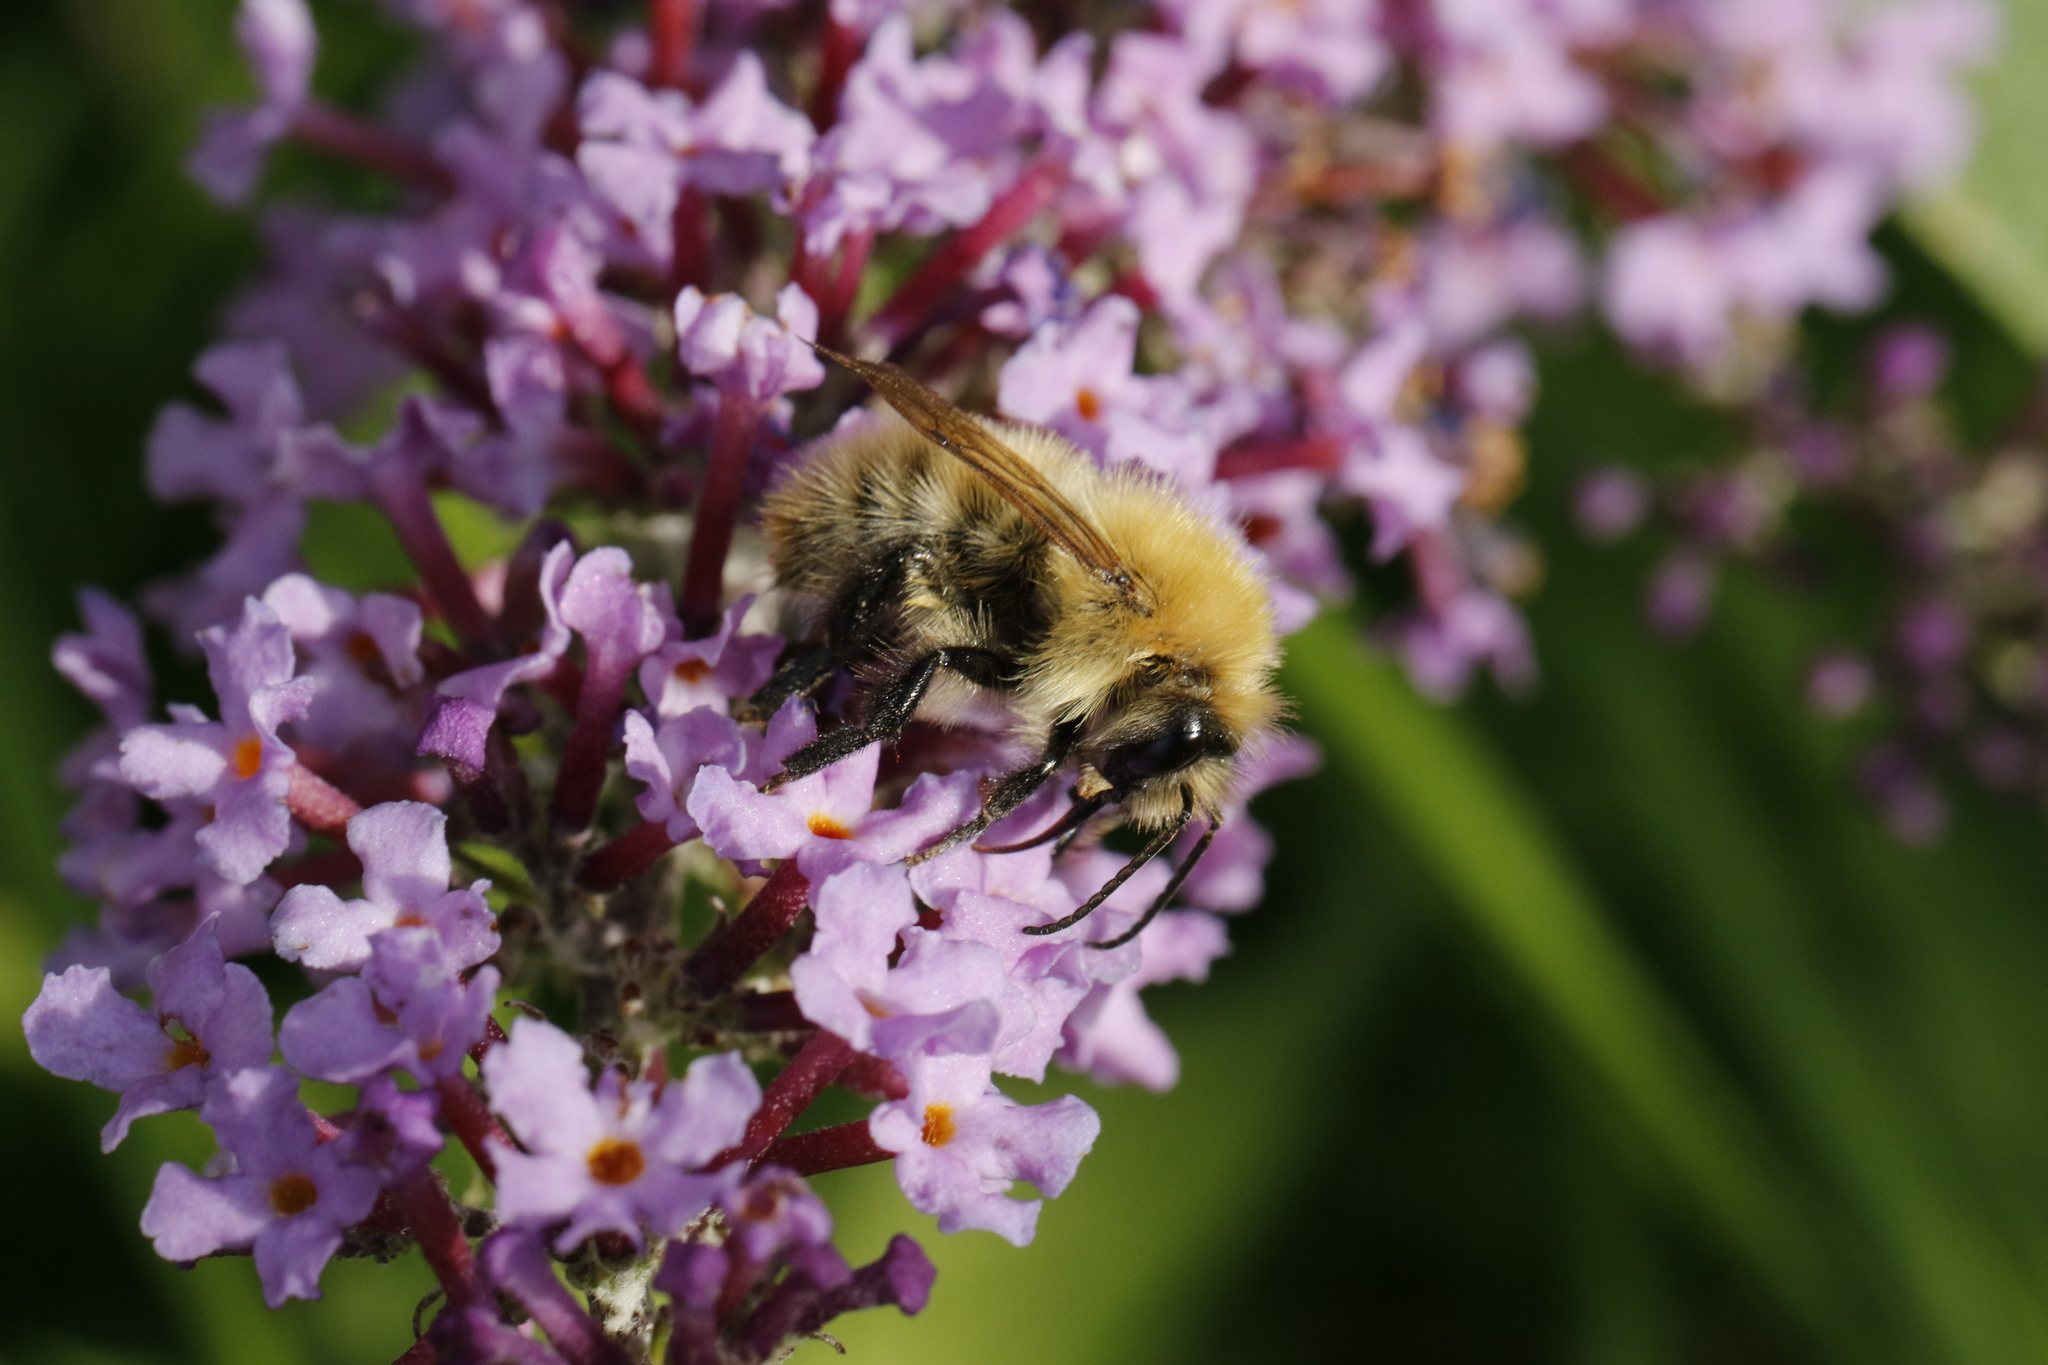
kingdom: Animalia
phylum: Arthropoda
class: Insecta
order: Hymenoptera
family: Apidae
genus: Bombus
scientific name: Bombus pascuorum
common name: Common carder bee
